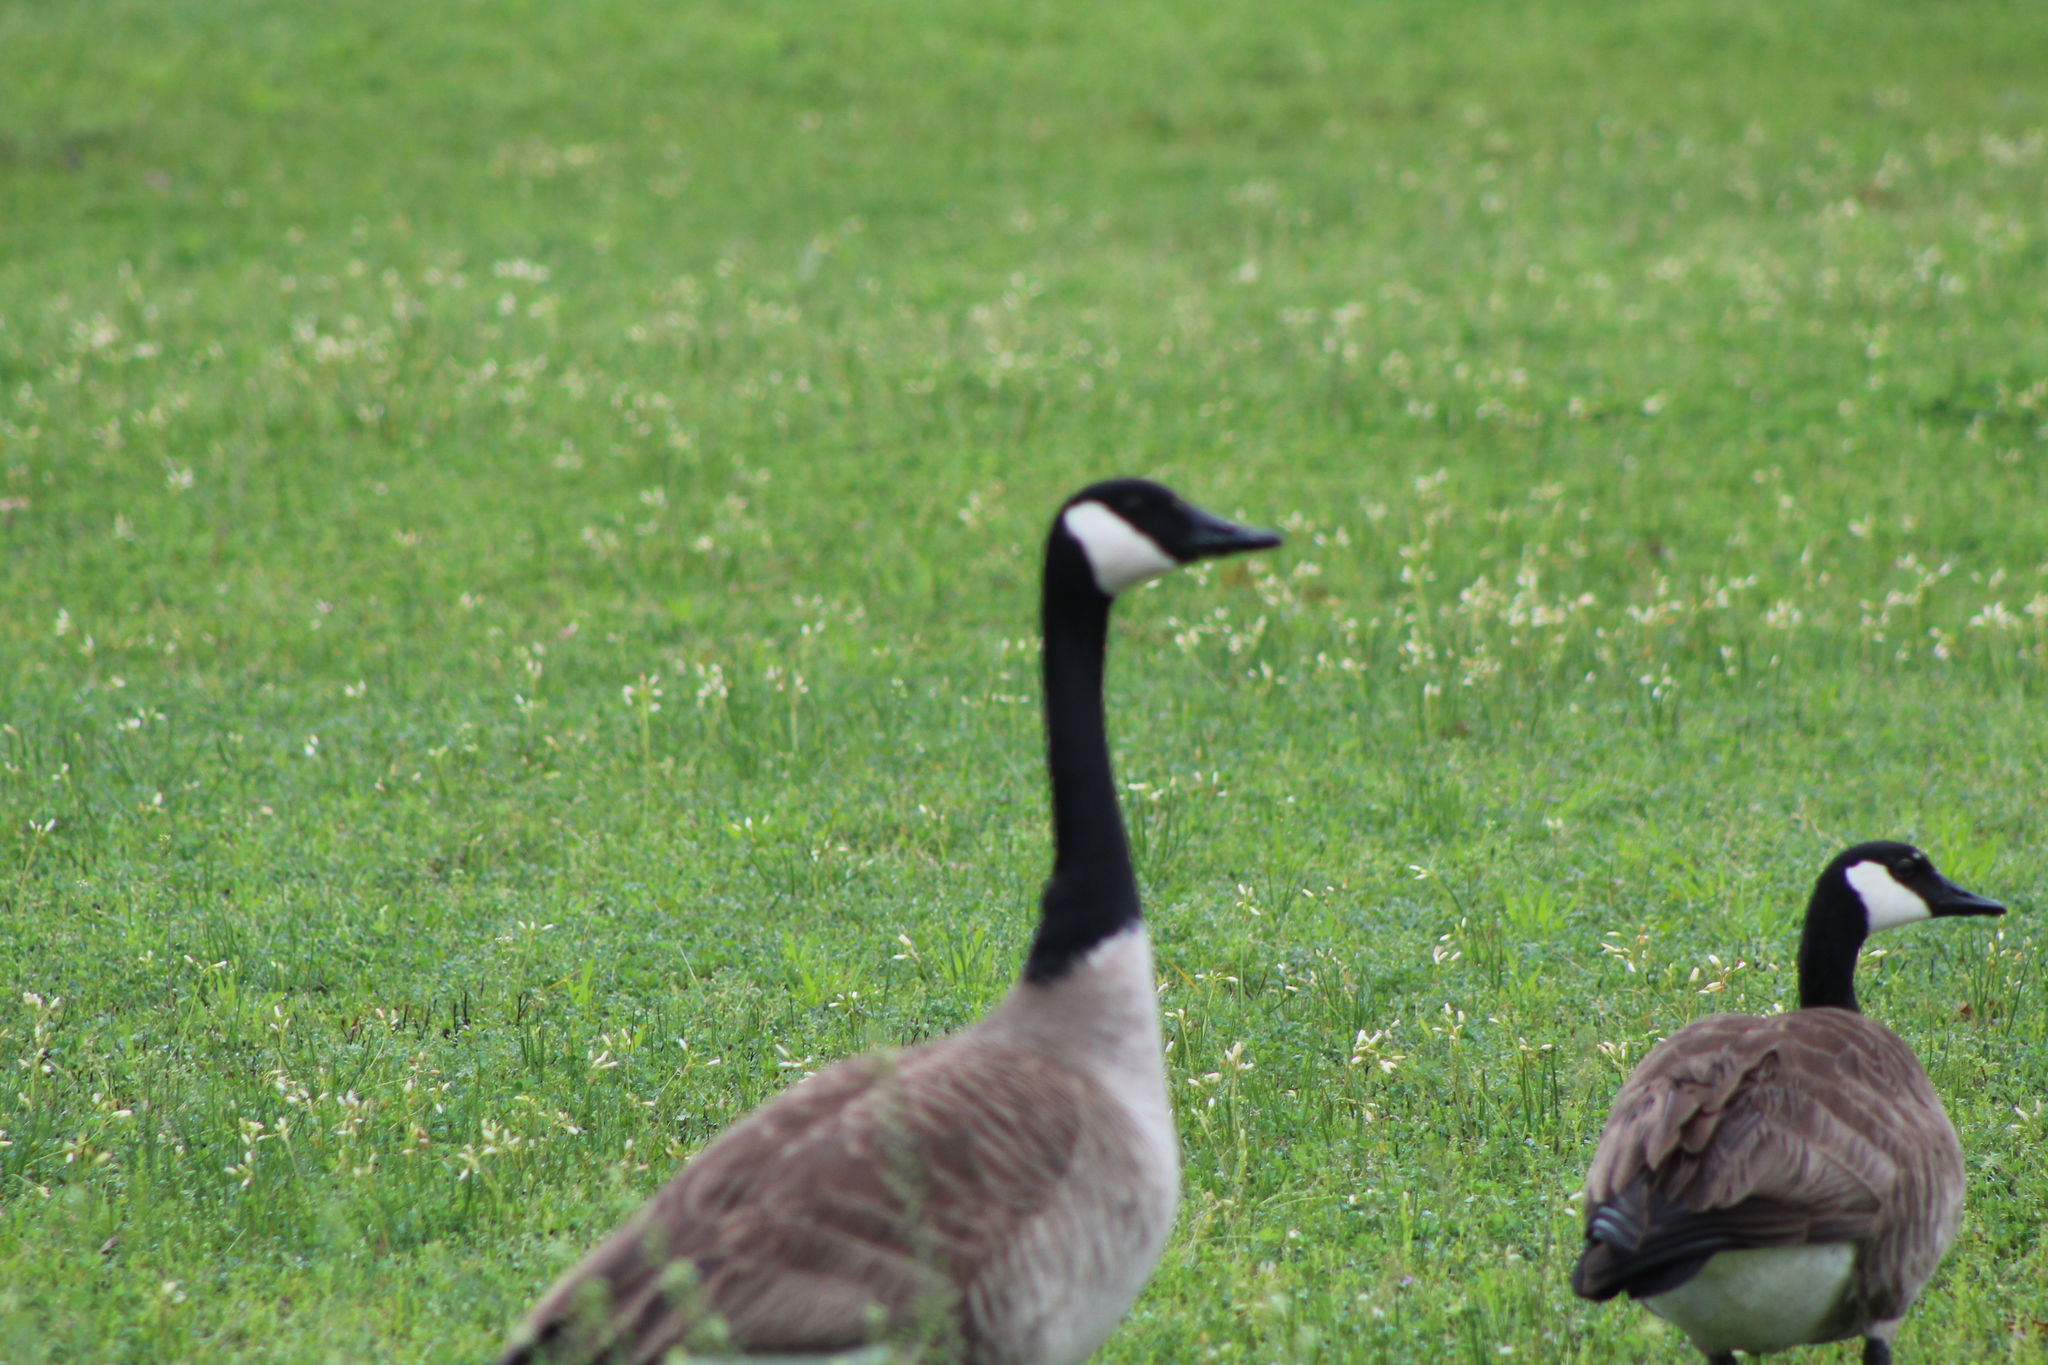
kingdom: Animalia
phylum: Chordata
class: Aves
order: Anseriformes
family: Anatidae
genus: Branta
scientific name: Branta canadensis
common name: Canada goose
